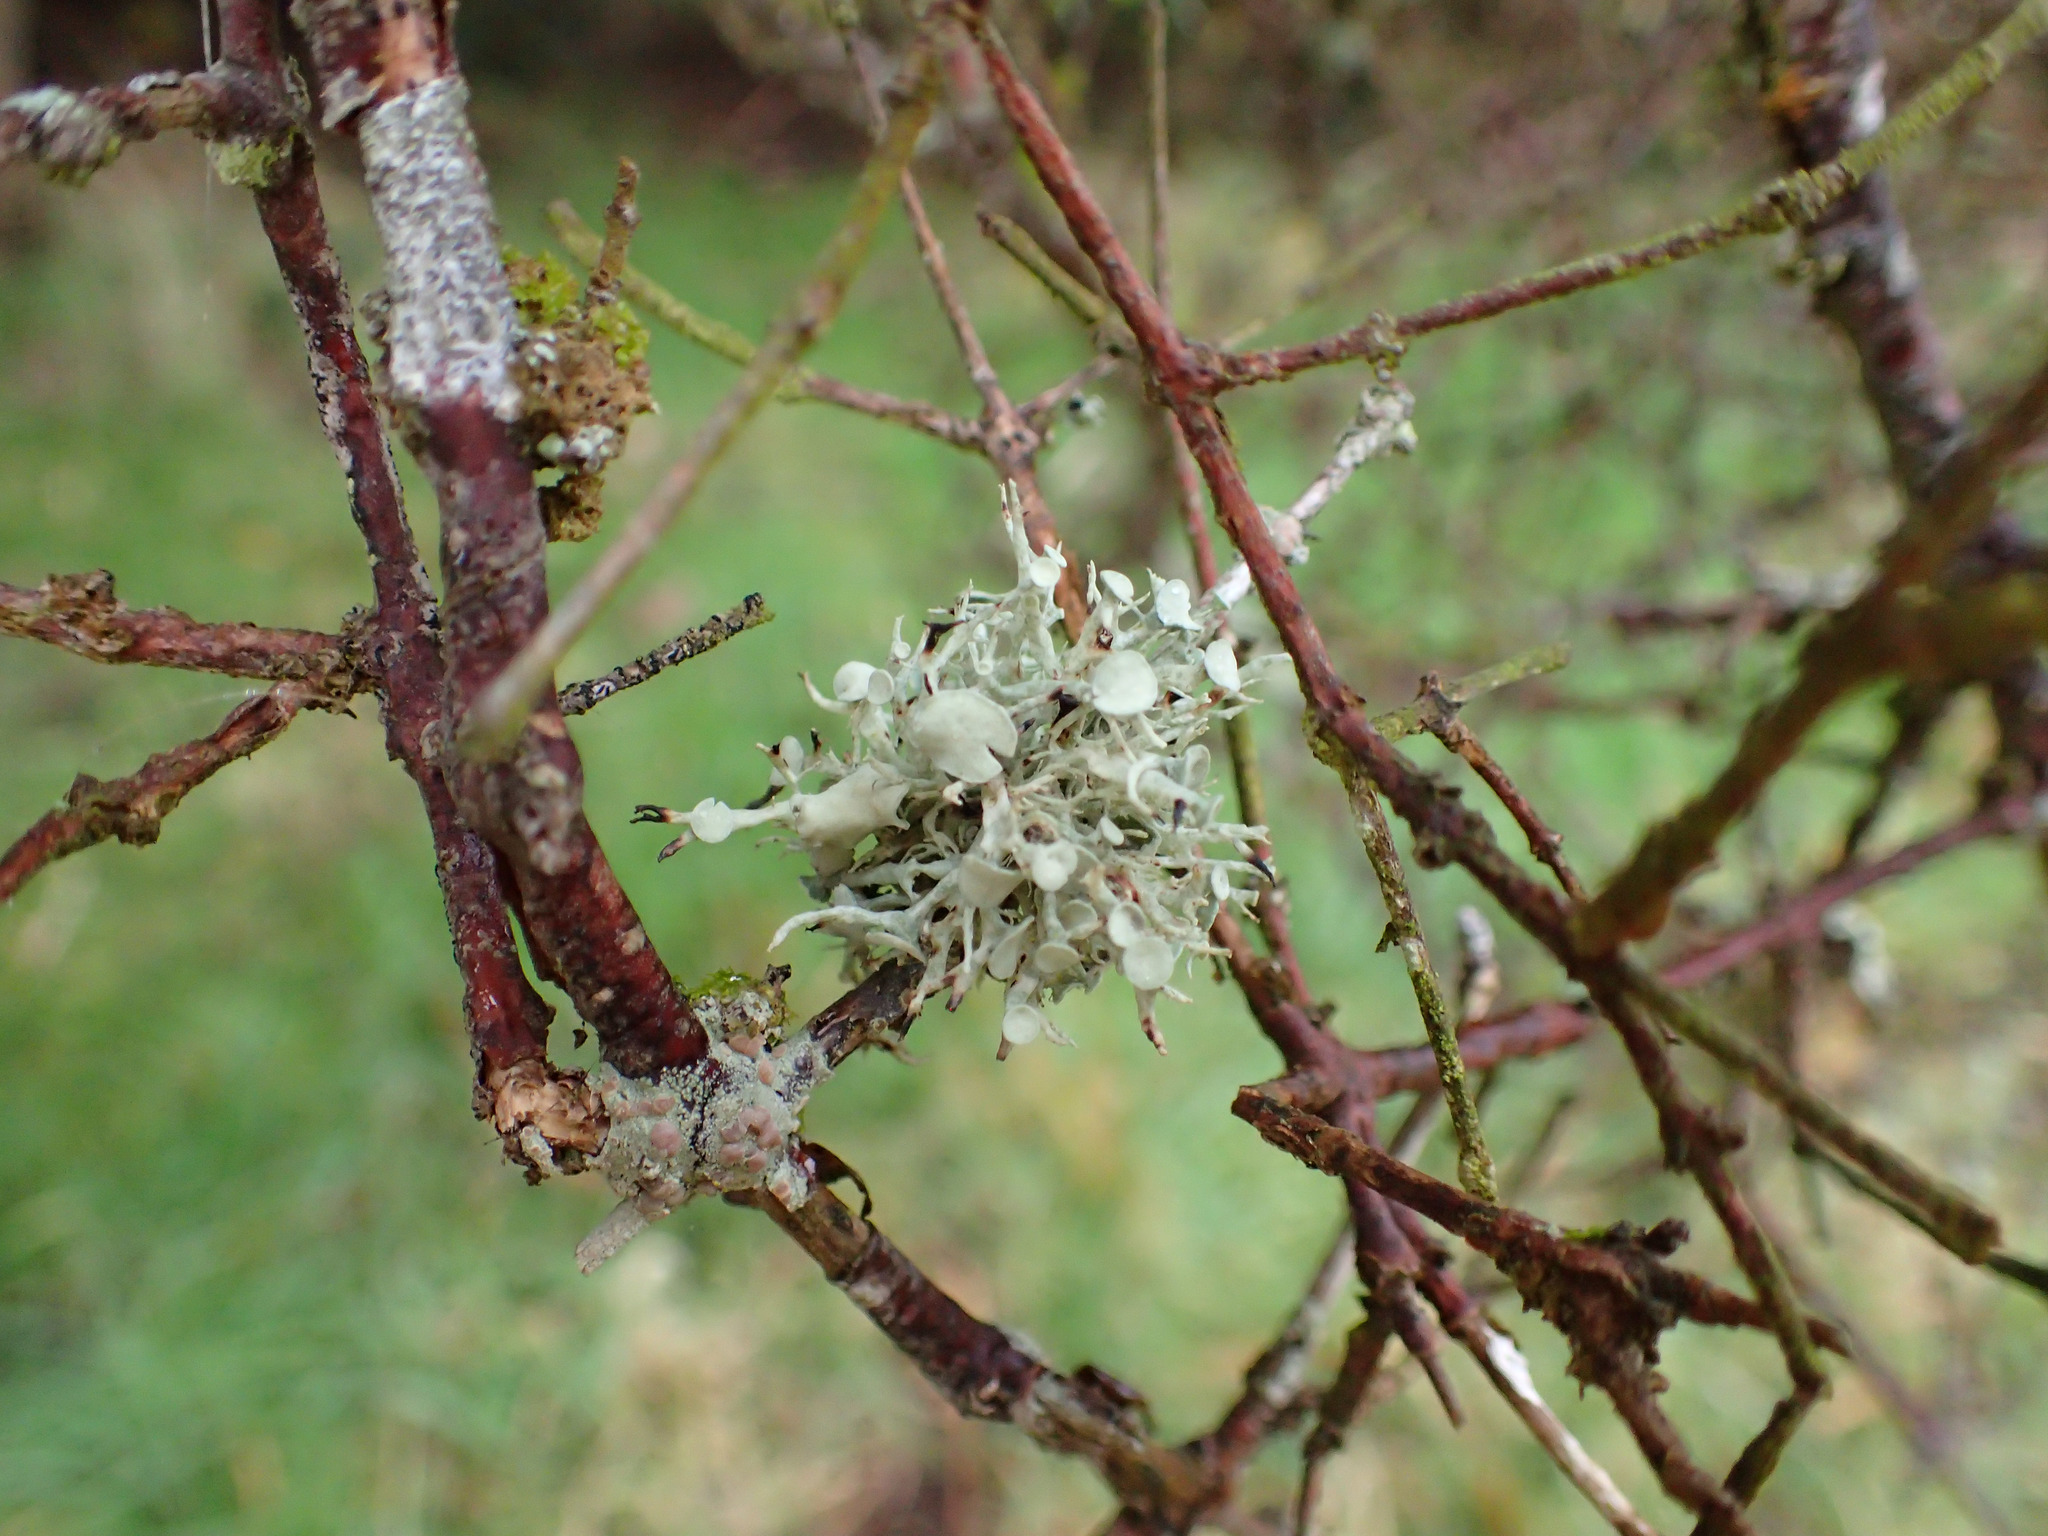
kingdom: Fungi
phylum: Ascomycota
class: Lecanoromycetes
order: Lecanorales
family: Ramalinaceae
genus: Ramalina
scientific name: Ramalina glaucescens
